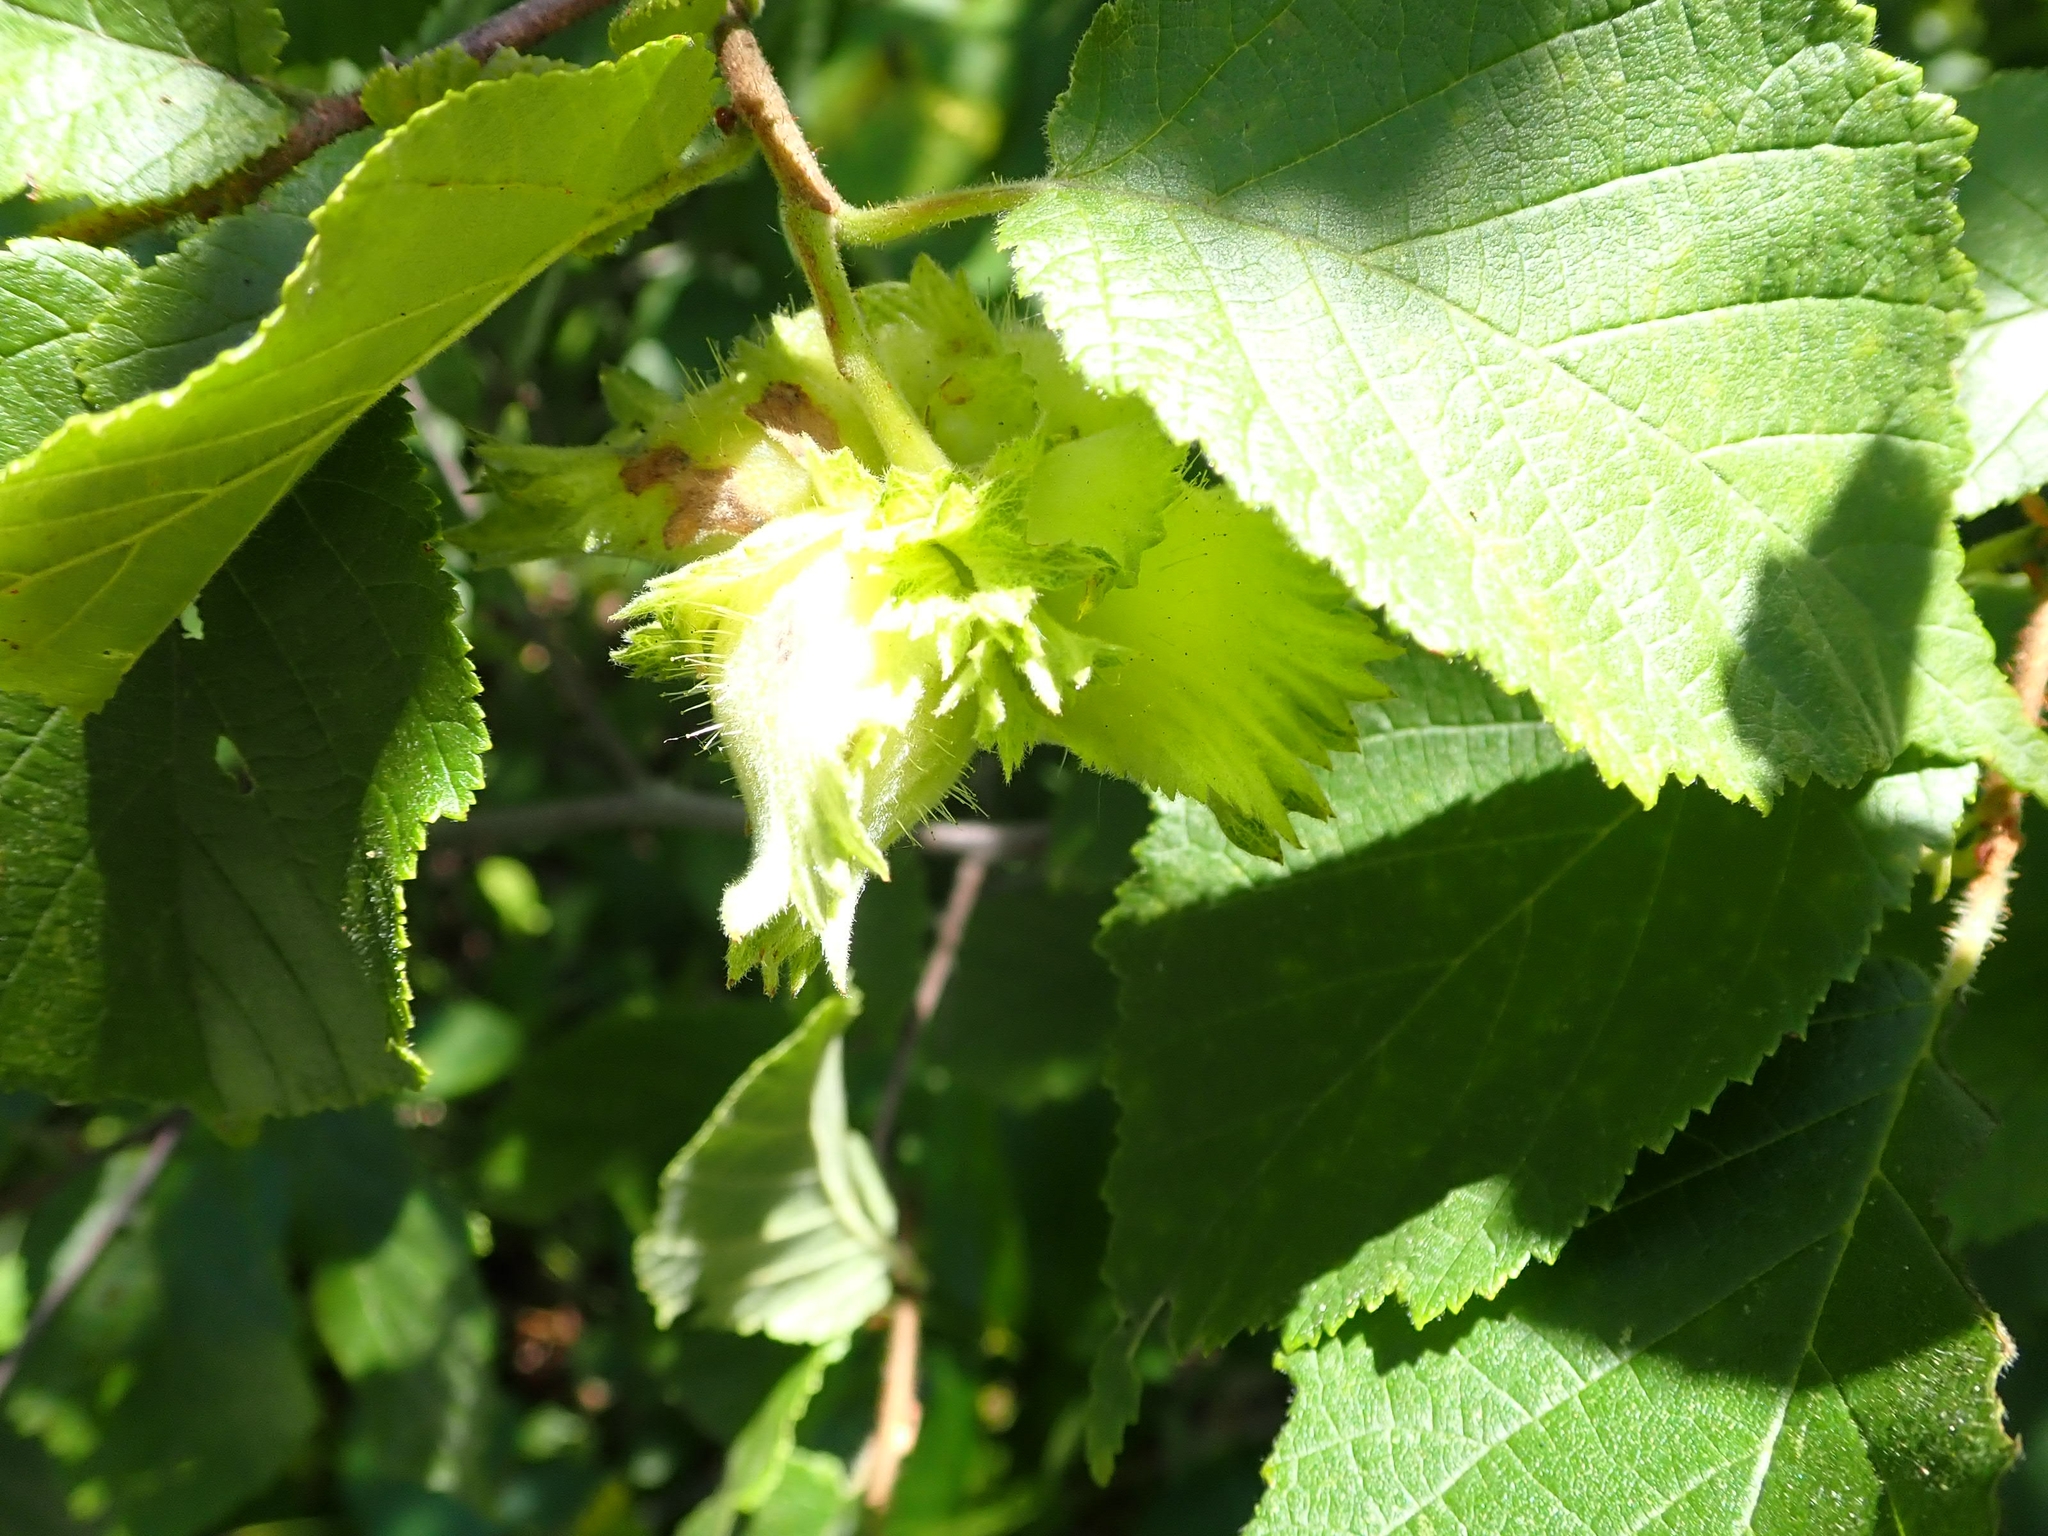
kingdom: Plantae
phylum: Tracheophyta
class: Magnoliopsida
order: Fagales
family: Betulaceae
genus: Corylus
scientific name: Corylus americana
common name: American hazel
